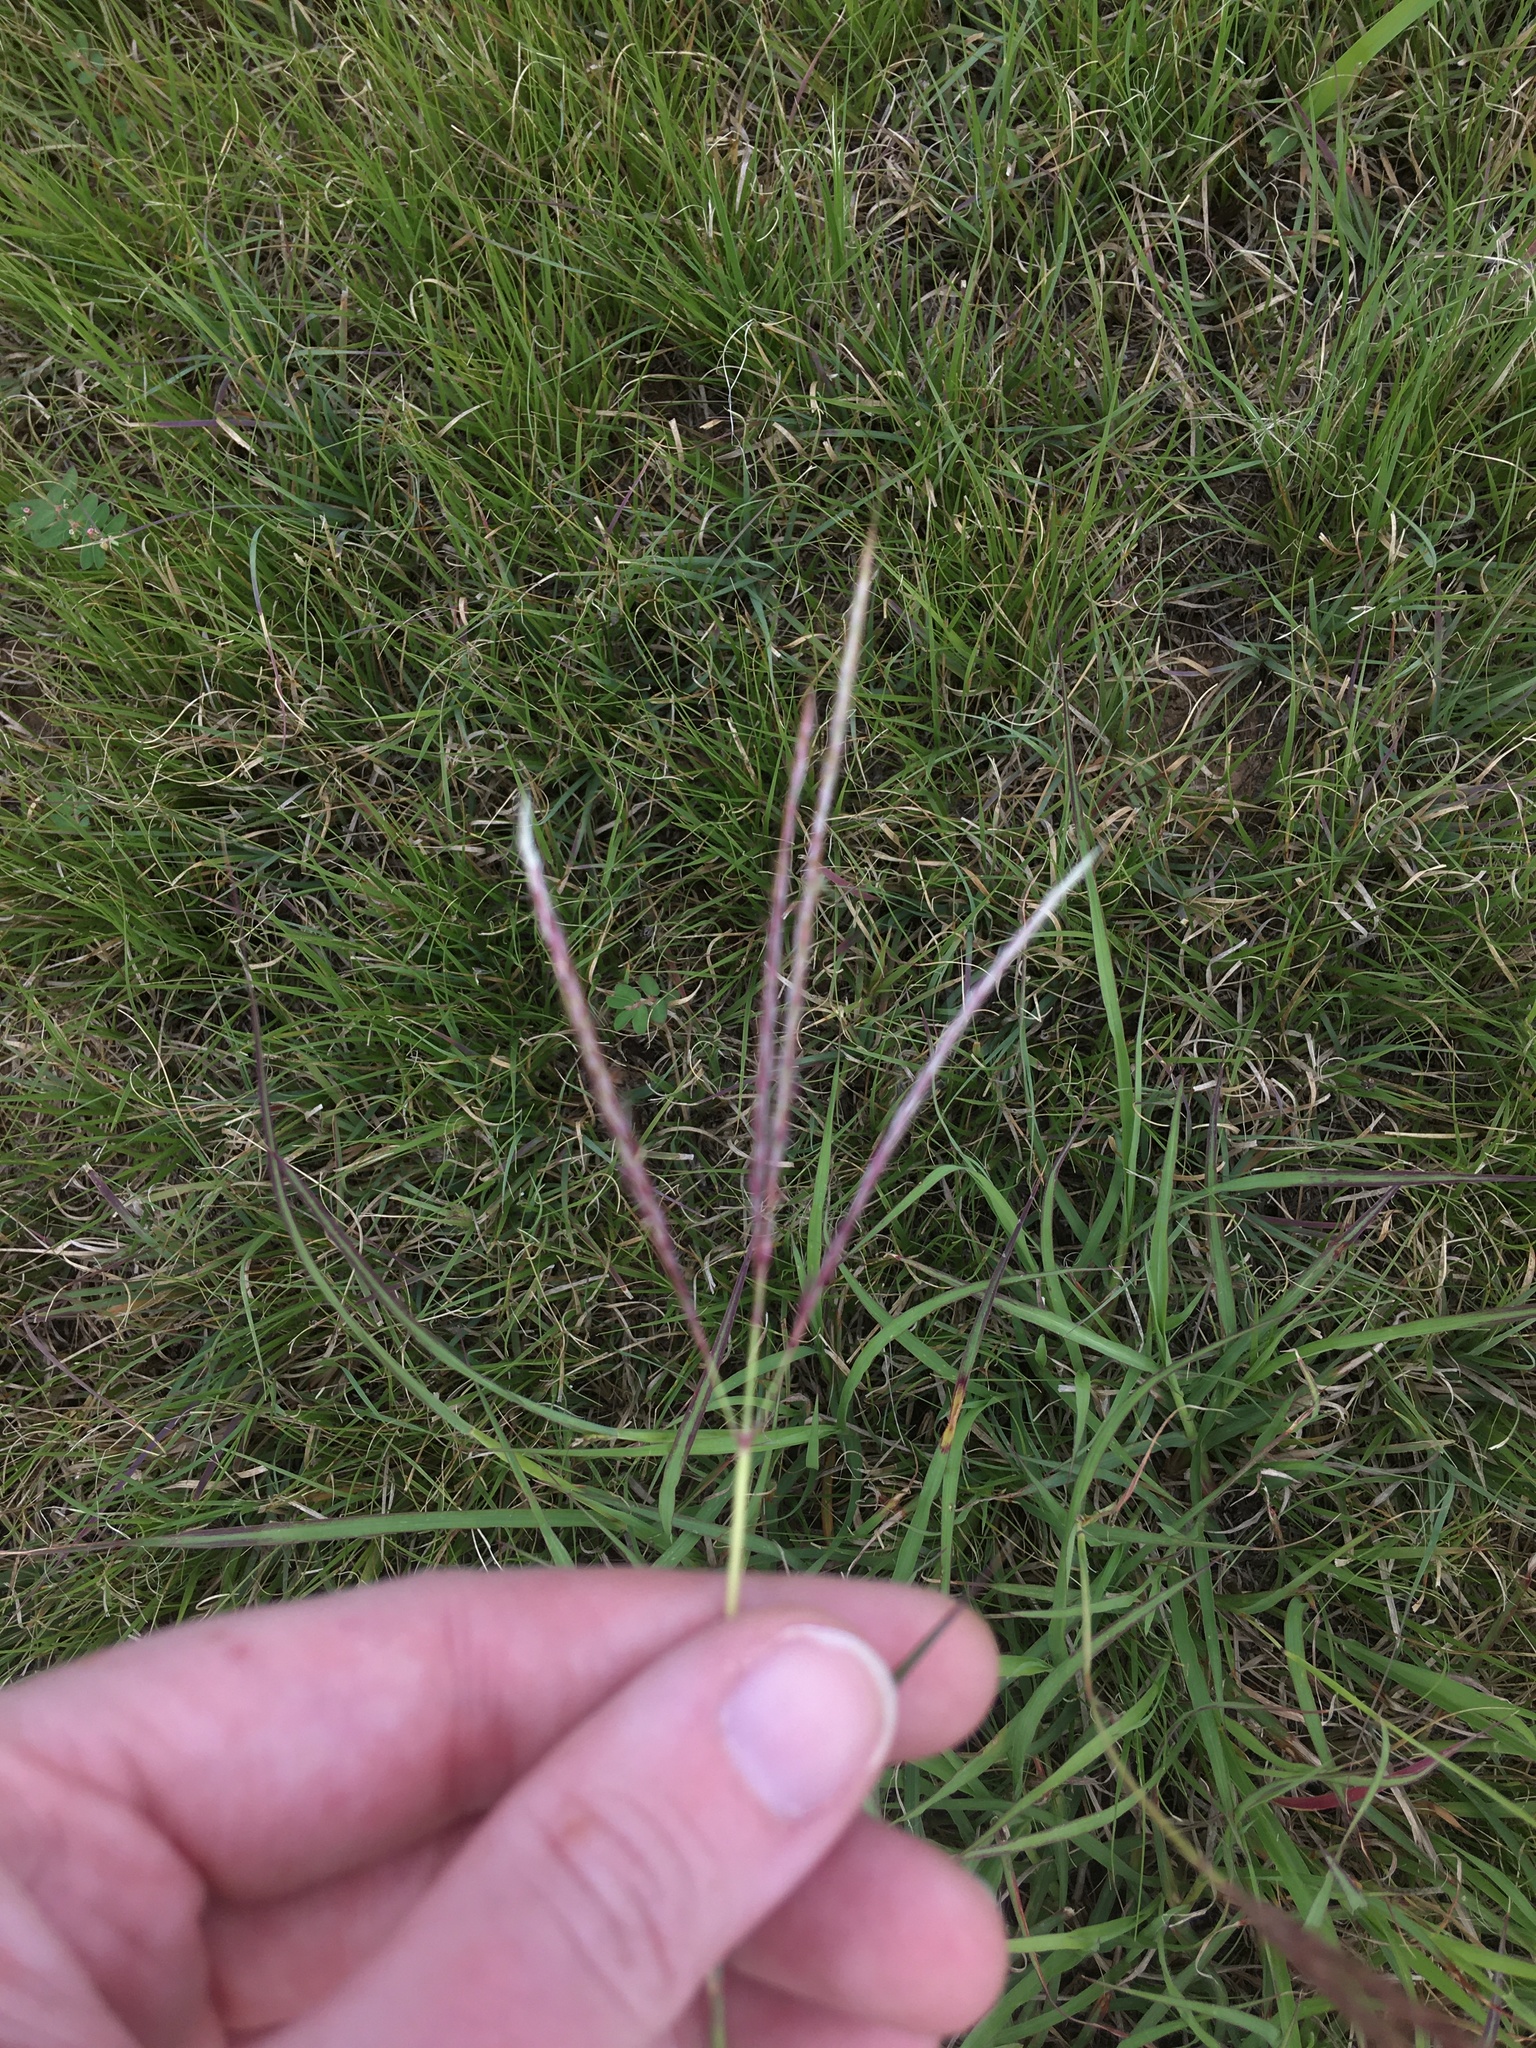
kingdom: Plantae
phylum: Tracheophyta
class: Liliopsida
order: Poales
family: Poaceae
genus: Bothriochloa
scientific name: Bothriochloa ischaemum
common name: Yellow bluestem
